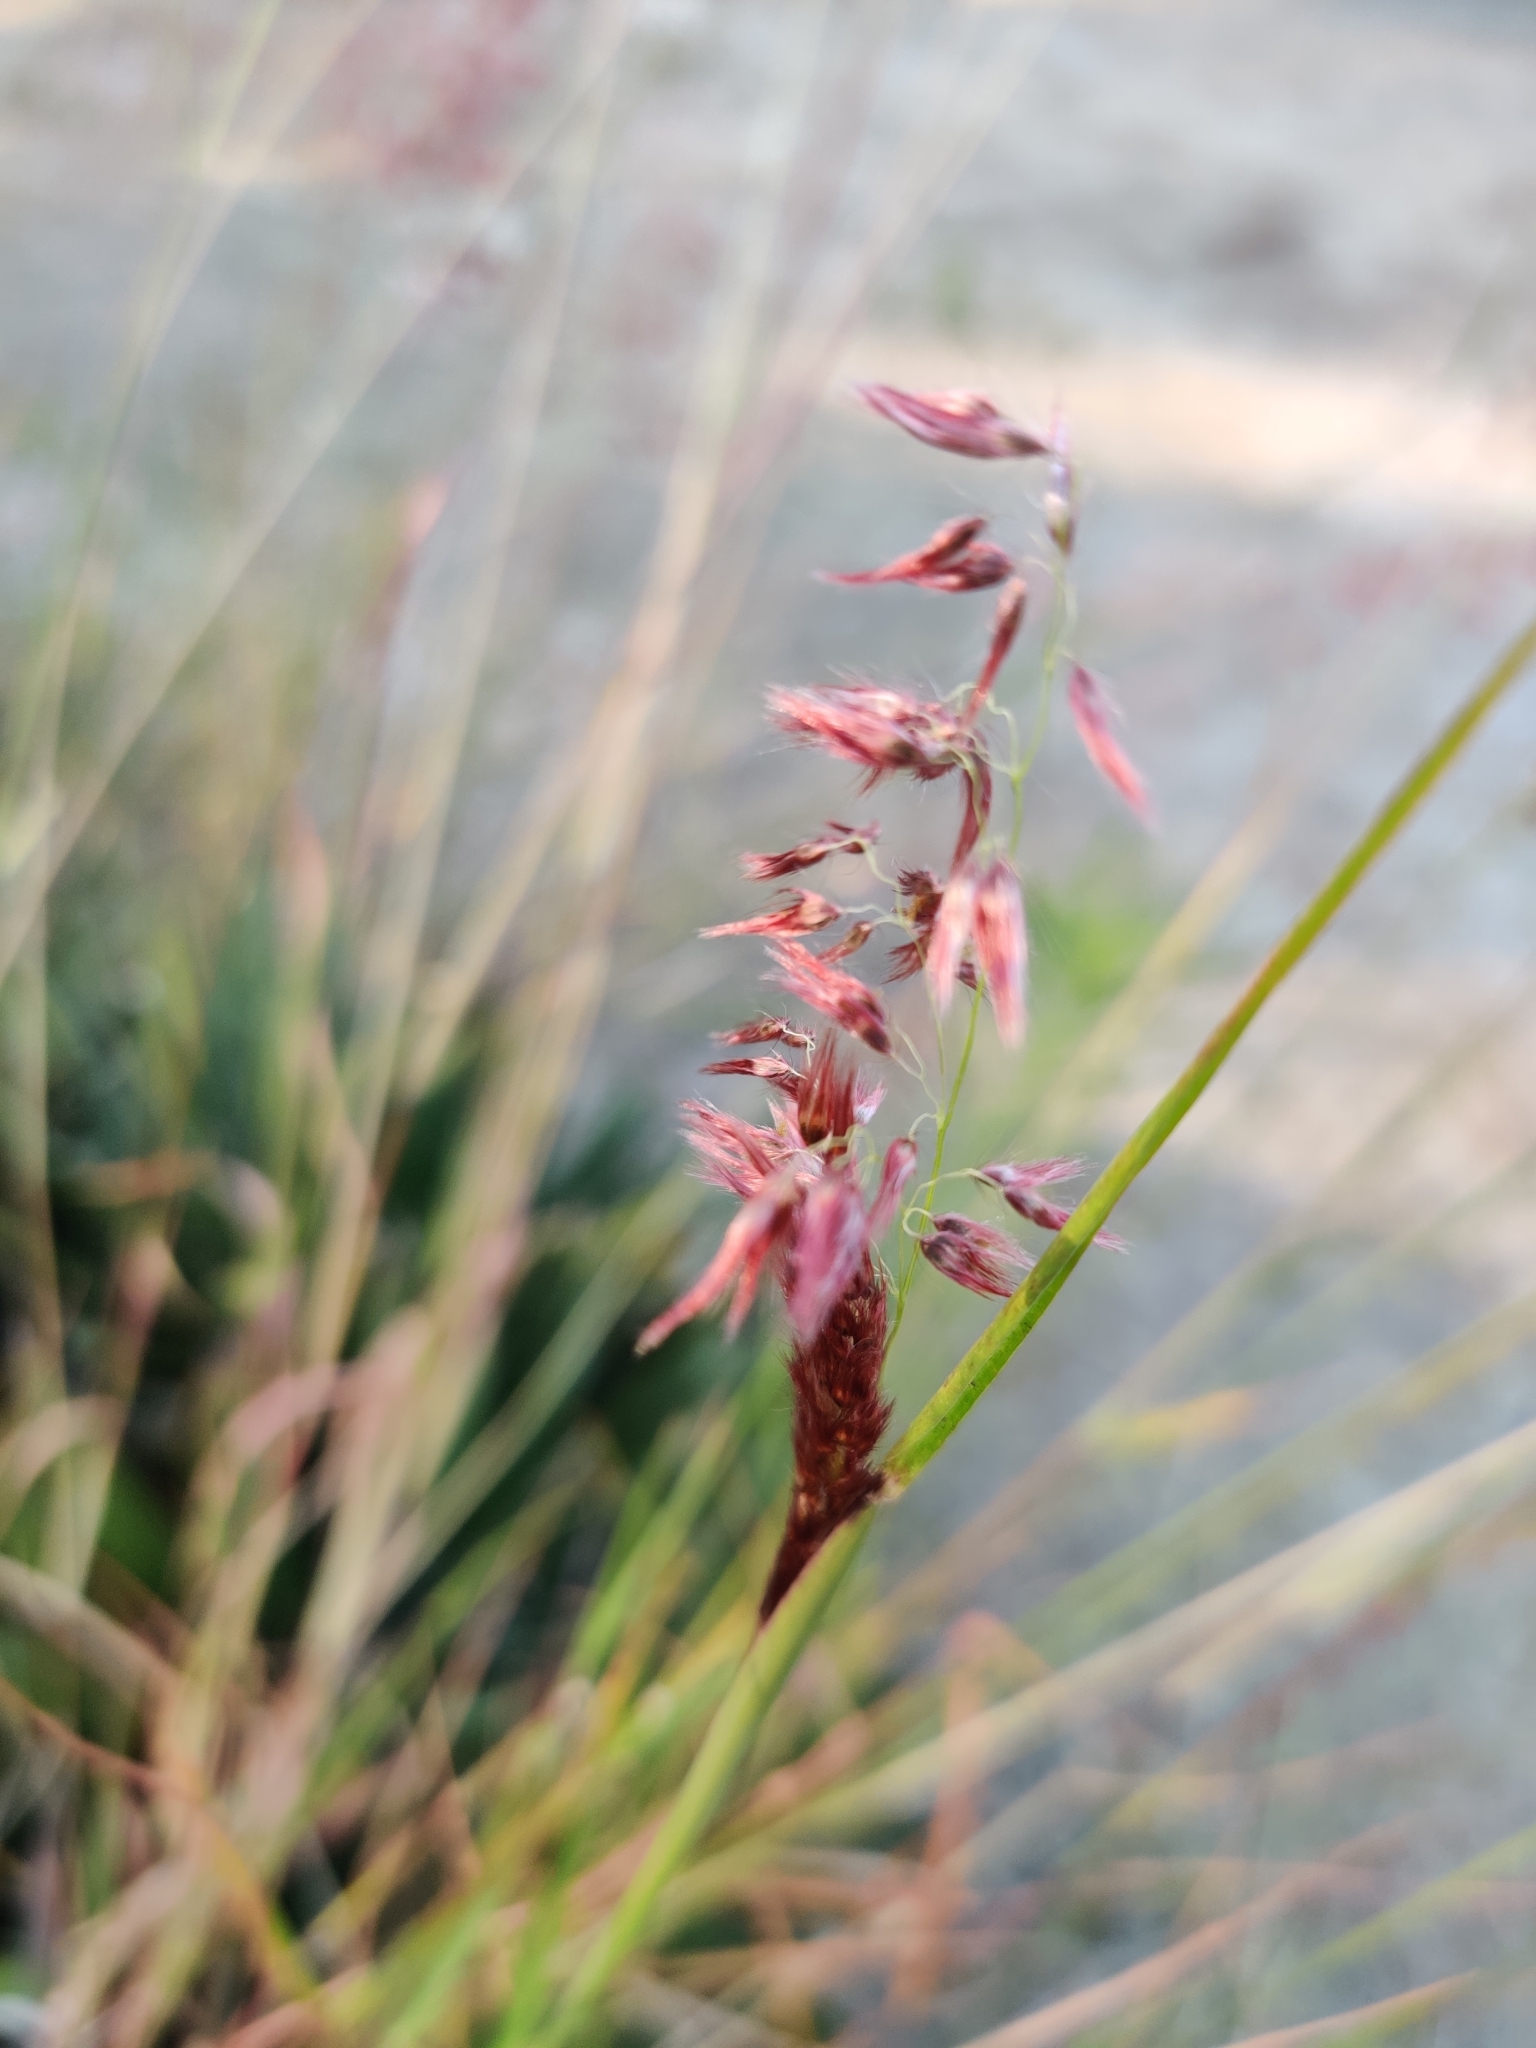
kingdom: Plantae
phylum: Tracheophyta
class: Liliopsida
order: Poales
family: Poaceae
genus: Melinis
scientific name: Melinis repens
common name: Rose natal grass
